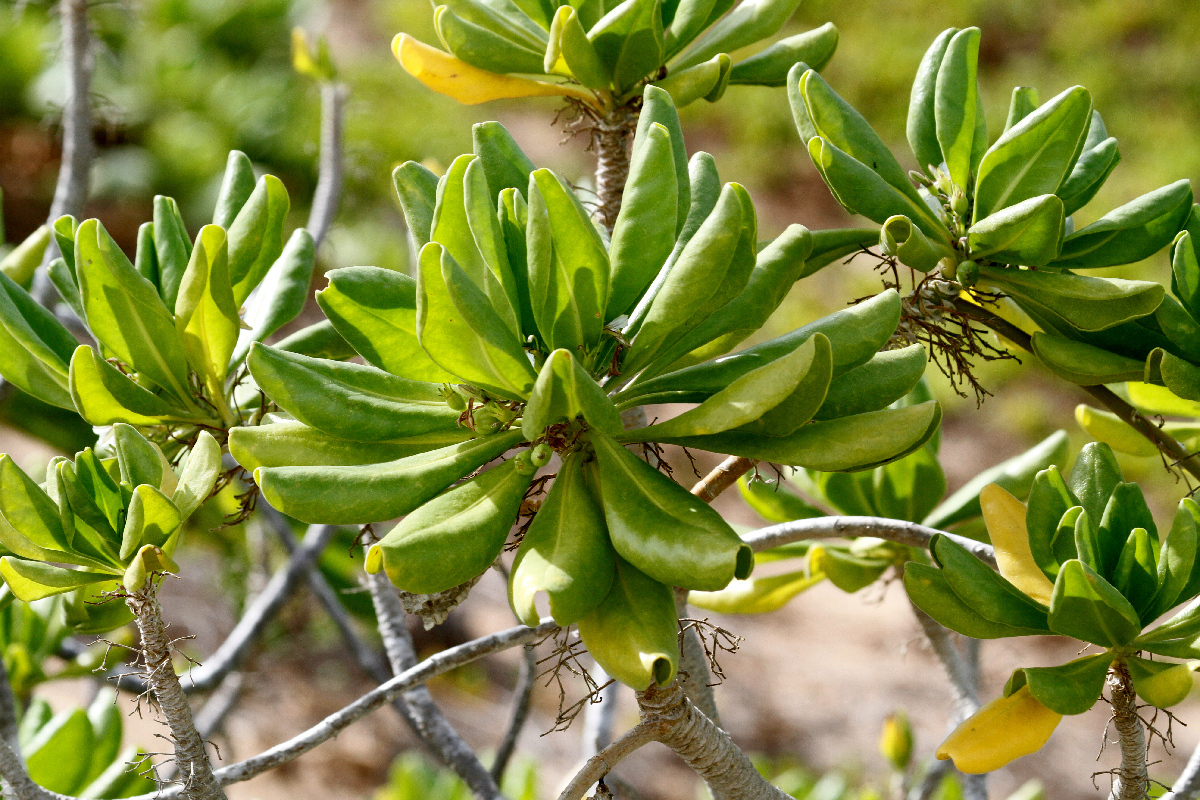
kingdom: Plantae
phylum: Tracheophyta
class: Magnoliopsida
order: Asterales
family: Goodeniaceae
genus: Scaevola
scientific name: Scaevola taccada
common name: Sea lettucetree
